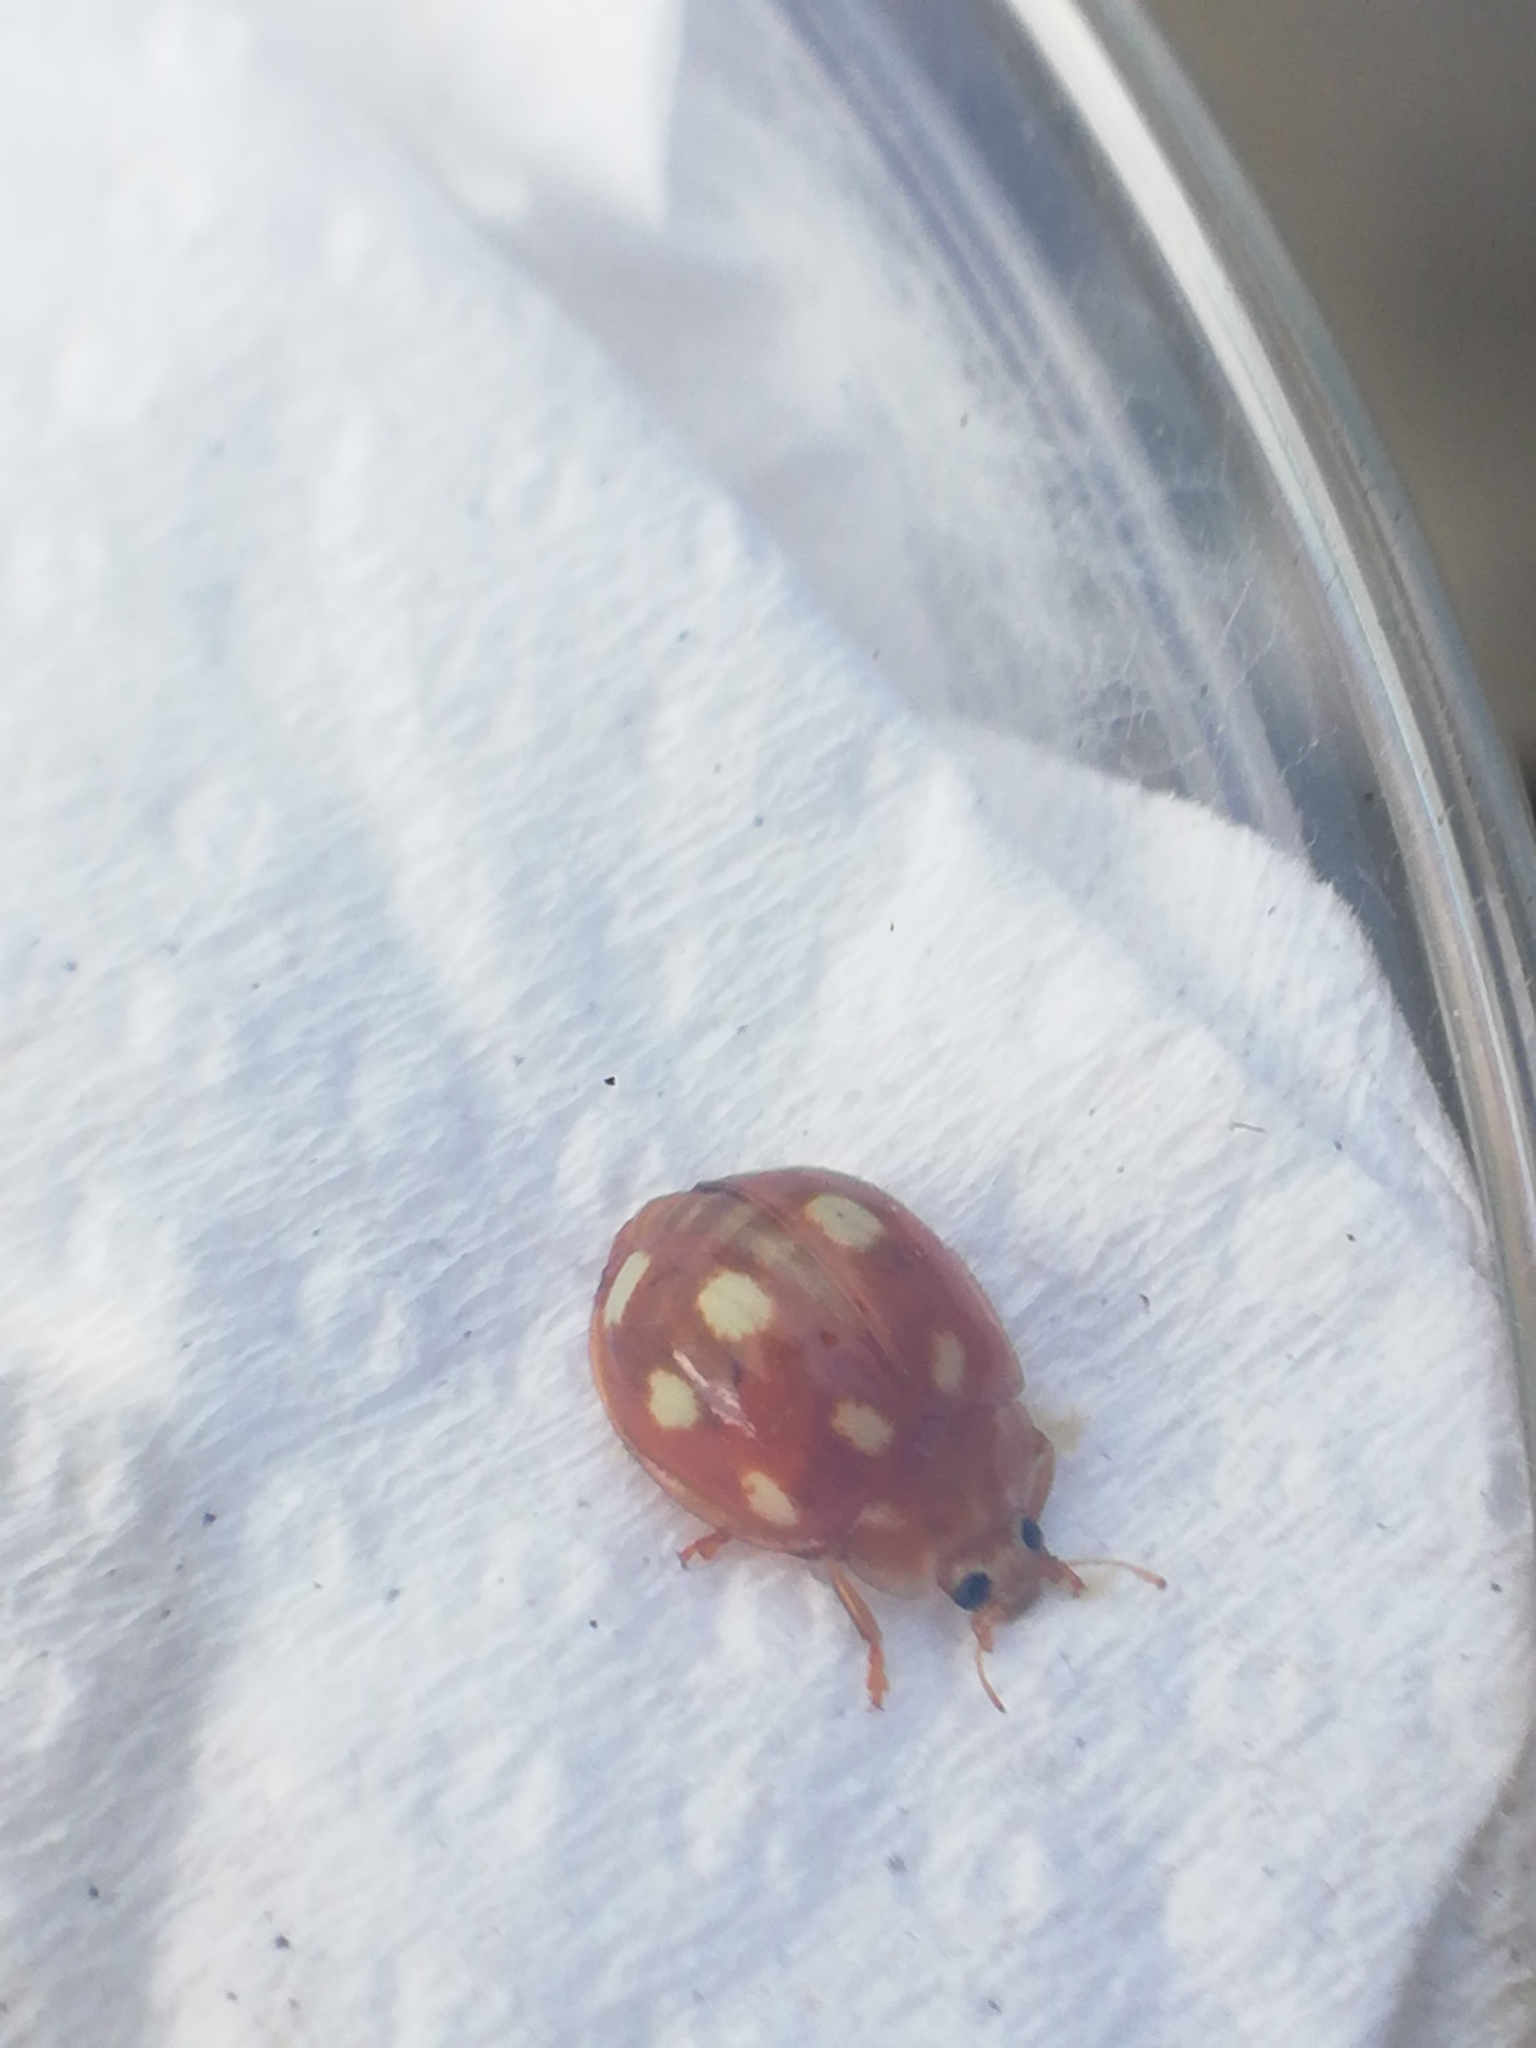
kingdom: Animalia
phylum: Arthropoda
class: Insecta
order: Coleoptera
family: Coccinellidae
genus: Calvia
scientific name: Calvia decemguttata
